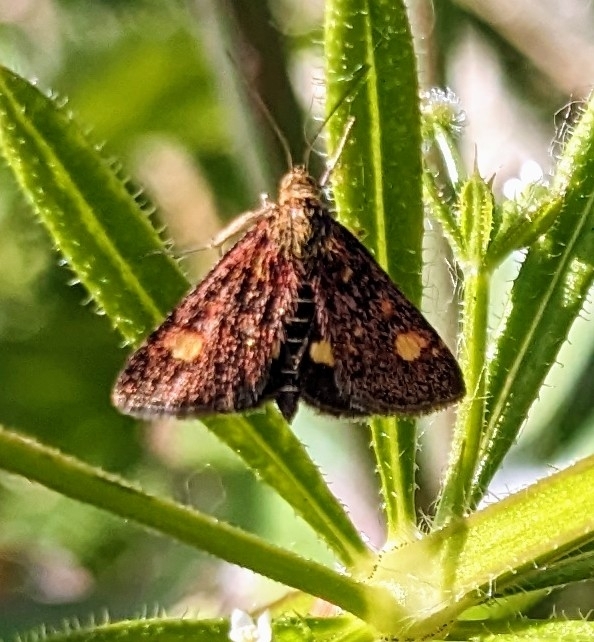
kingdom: Animalia
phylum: Arthropoda
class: Insecta
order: Lepidoptera
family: Crambidae
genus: Pyrausta
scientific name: Pyrausta aurata
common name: Small purple & gold
